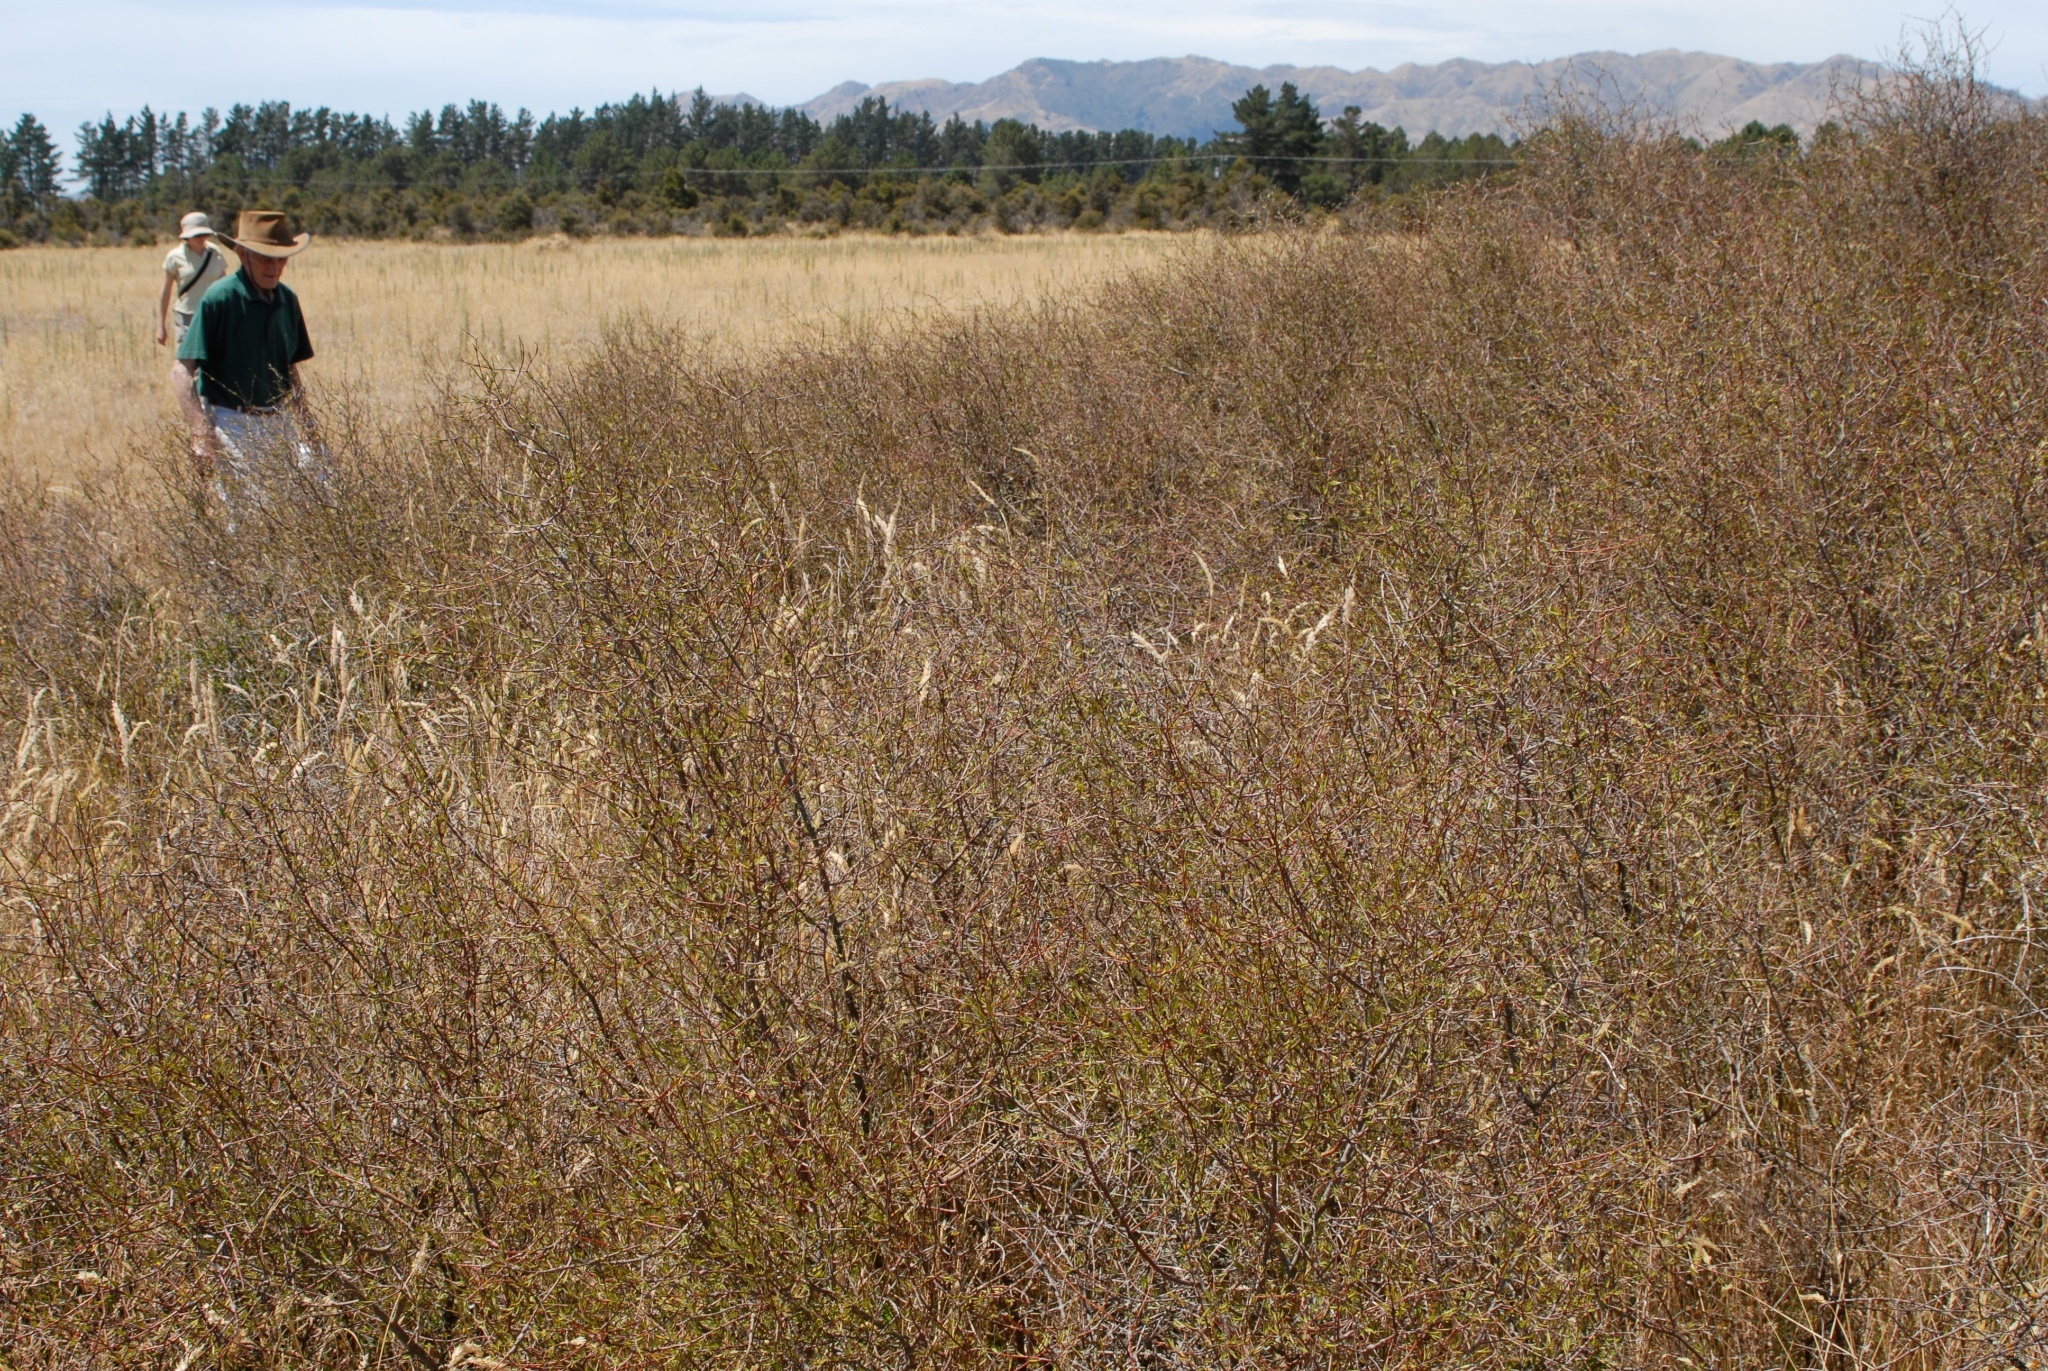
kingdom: Plantae
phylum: Tracheophyta
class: Magnoliopsida
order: Gentianales
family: Rubiaceae
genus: Coprosma
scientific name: Coprosma intertexta
